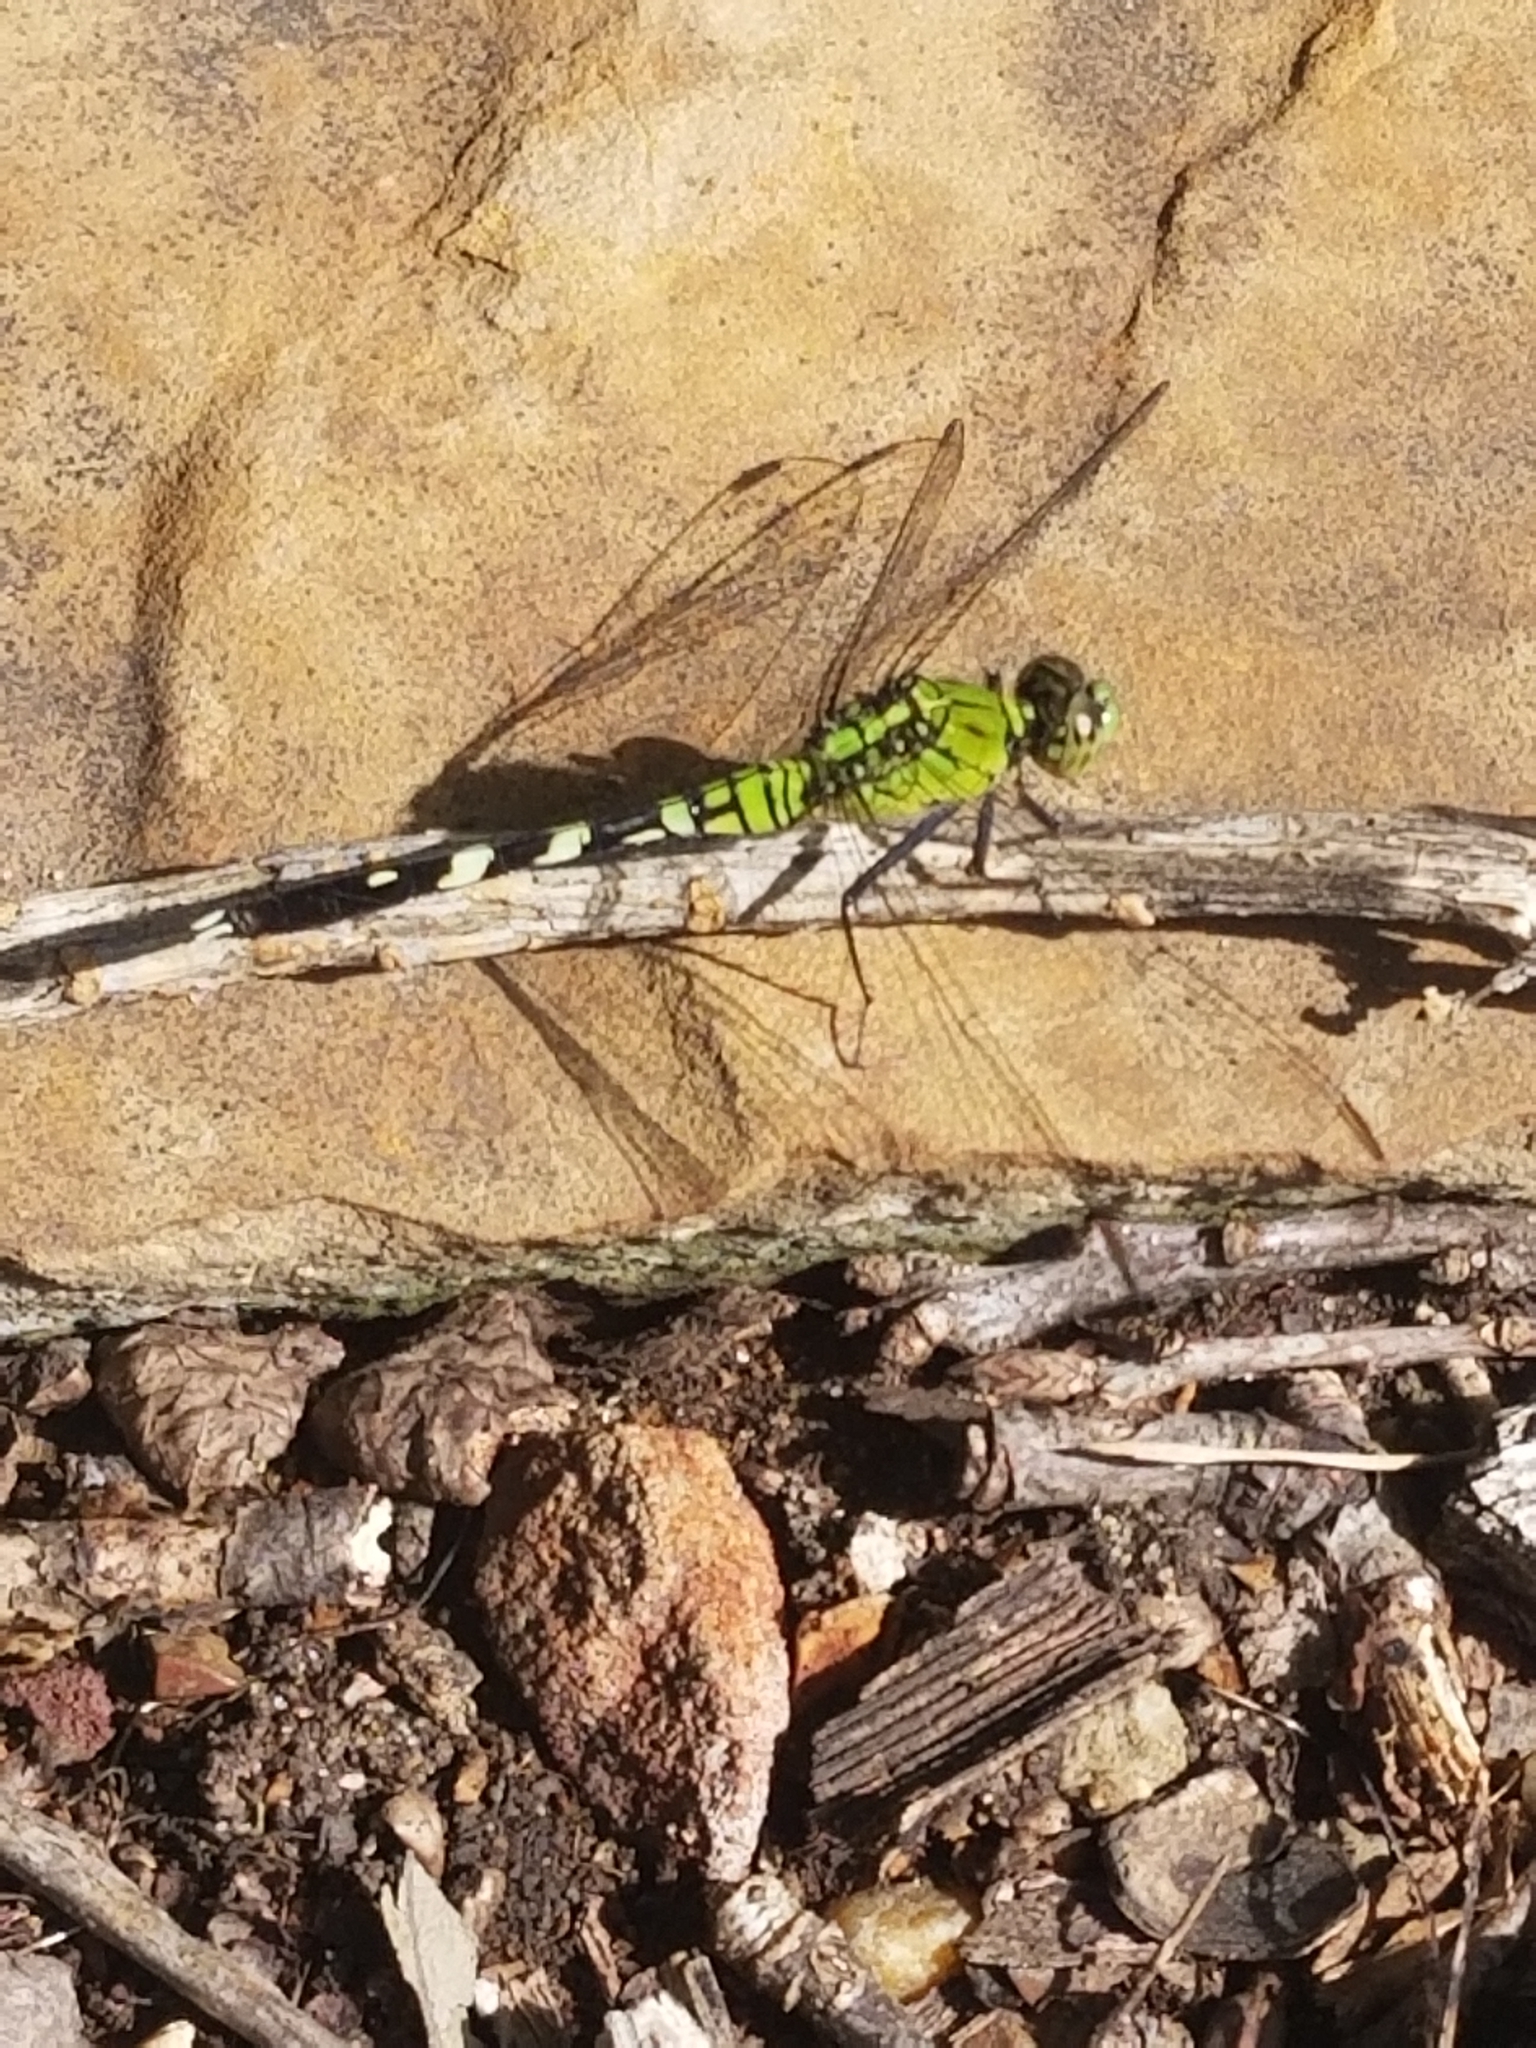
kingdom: Animalia
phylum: Arthropoda
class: Insecta
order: Odonata
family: Libellulidae
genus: Erythemis
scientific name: Erythemis simplicicollis
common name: Eastern pondhawk
